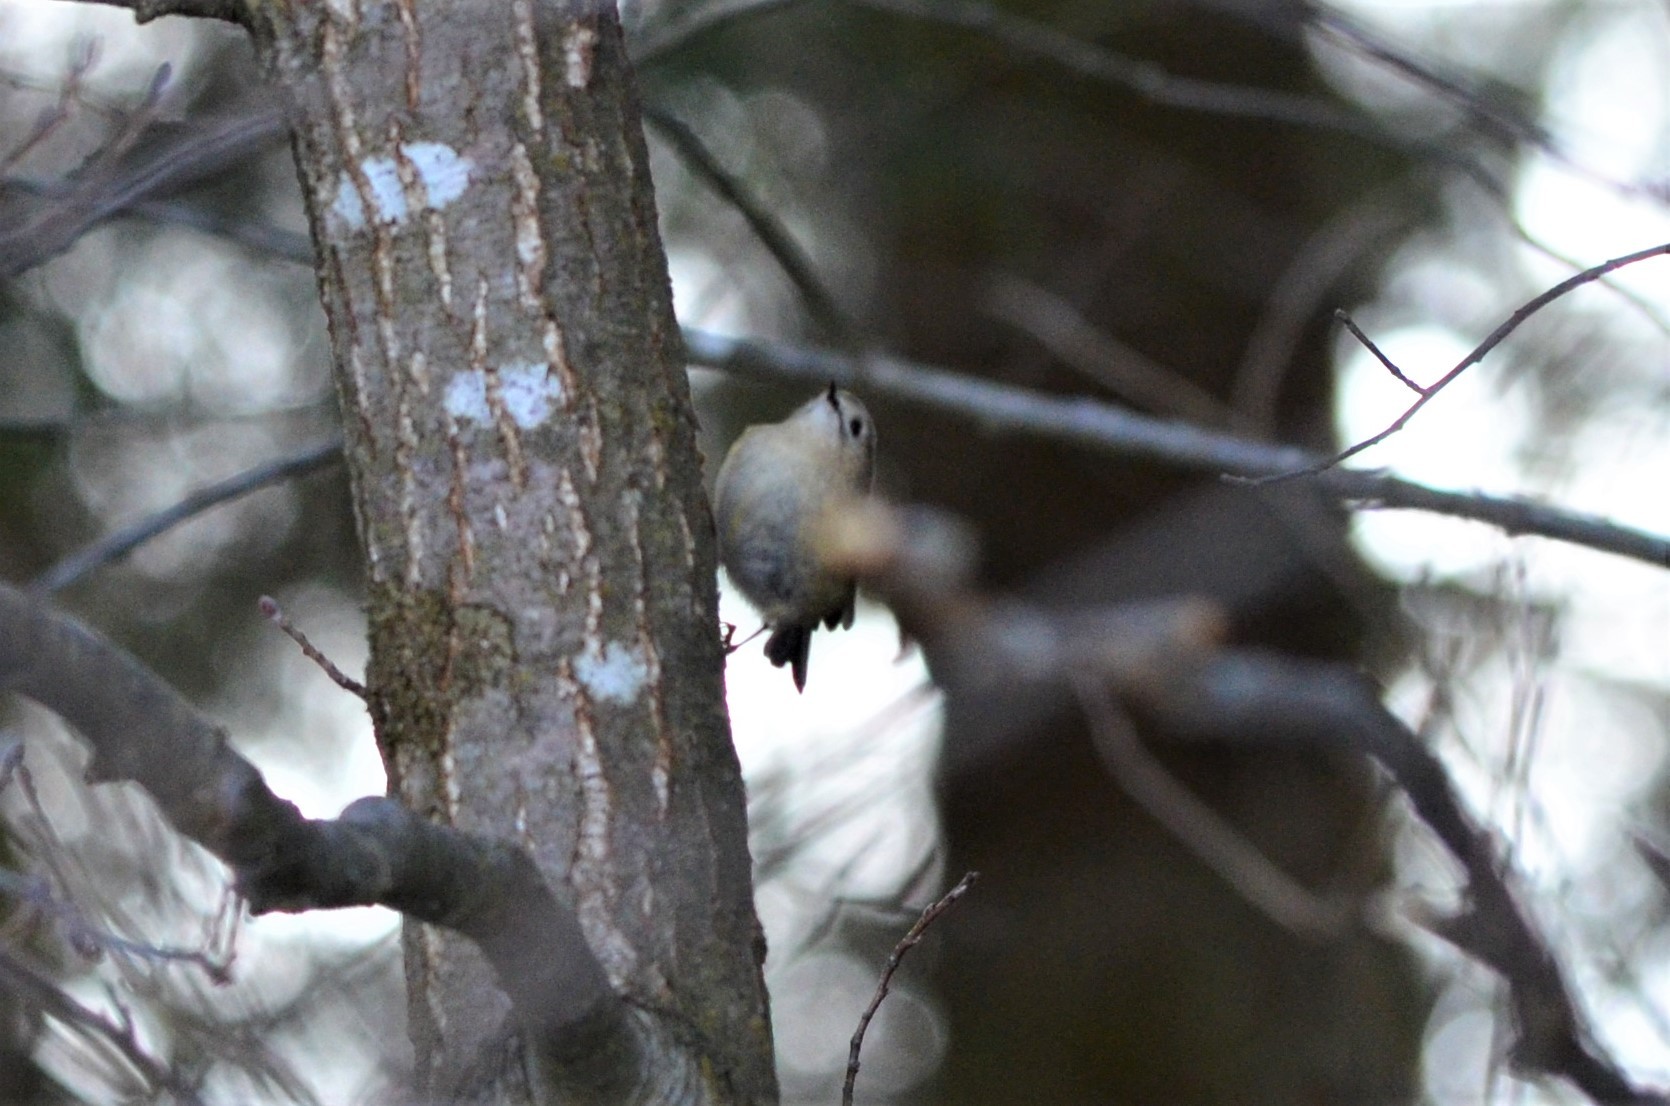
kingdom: Animalia
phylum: Chordata
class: Aves
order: Passeriformes
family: Regulidae
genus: Regulus
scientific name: Regulus regulus
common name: Goldcrest
